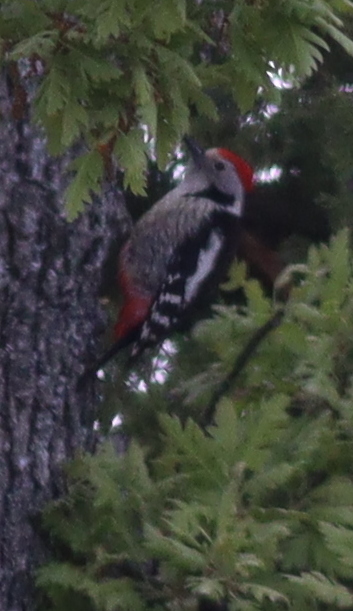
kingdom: Animalia
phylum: Chordata
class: Aves
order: Piciformes
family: Picidae
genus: Dendrocoptes
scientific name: Dendrocoptes medius
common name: Middle spotted woodpecker
